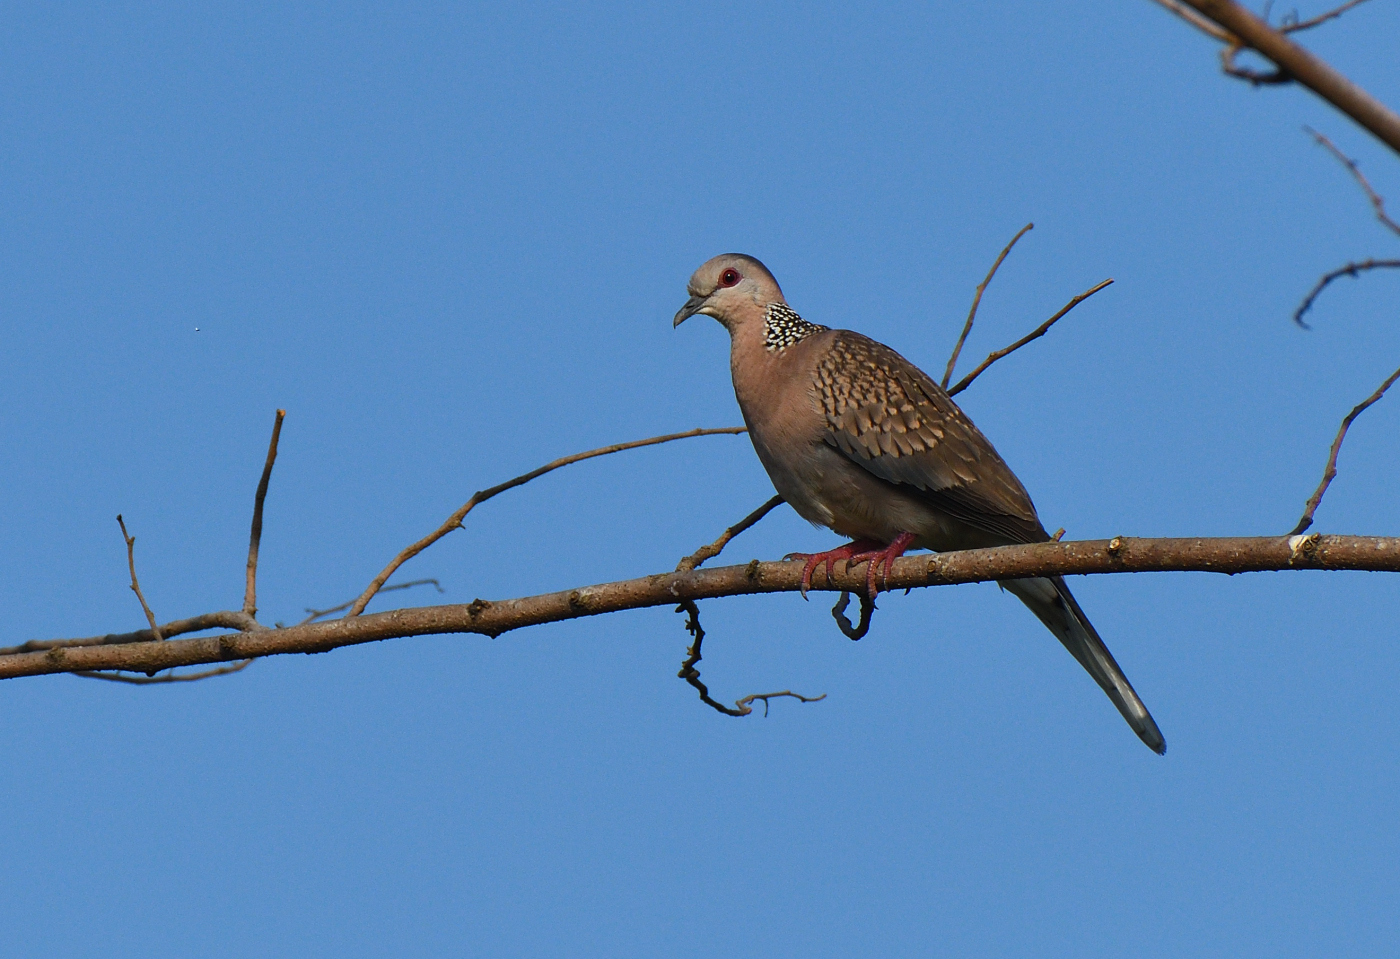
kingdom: Animalia
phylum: Chordata
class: Aves
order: Columbiformes
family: Columbidae
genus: Spilopelia
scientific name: Spilopelia chinensis
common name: Spotted dove
